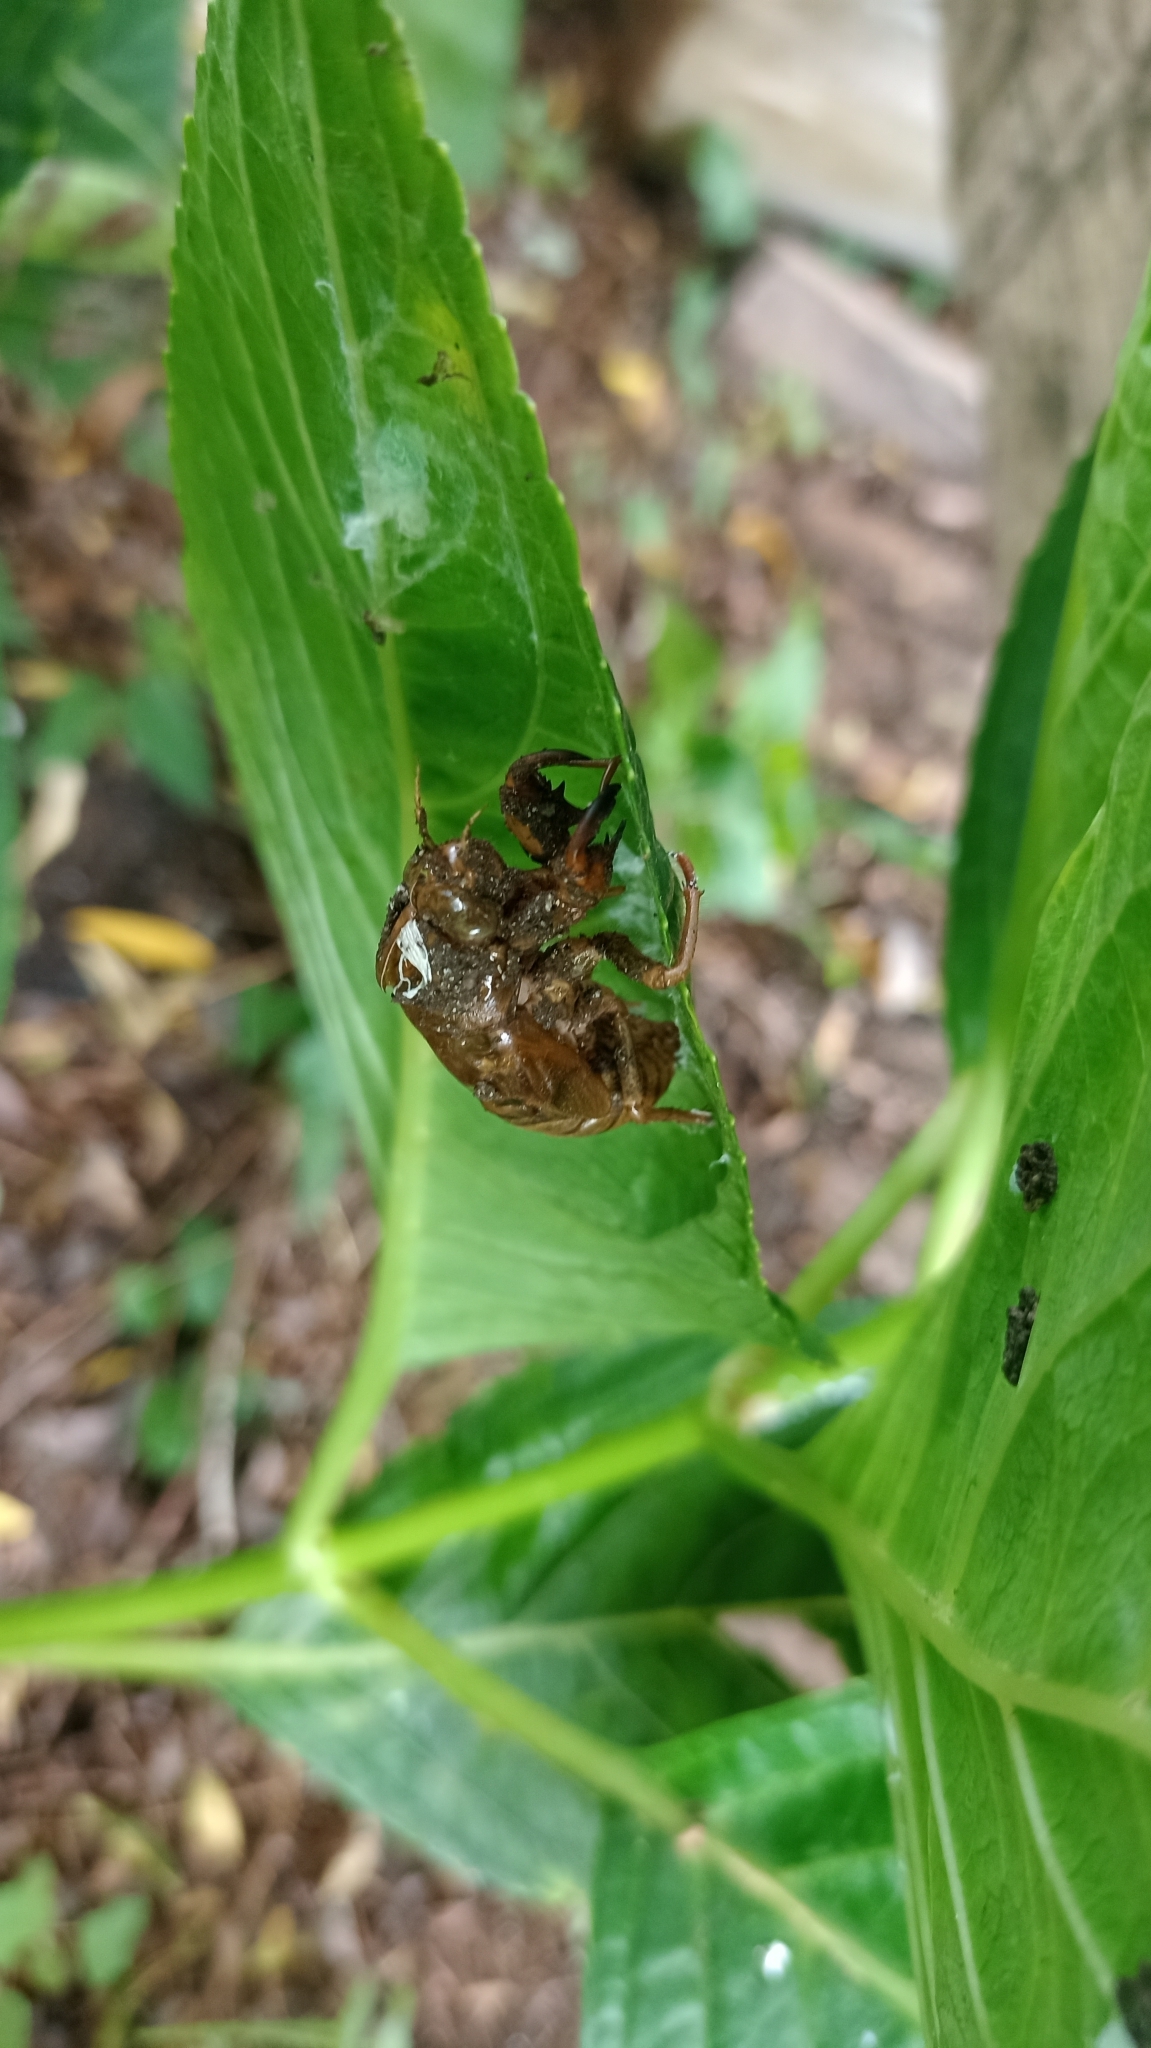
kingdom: Animalia
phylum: Arthropoda
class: Insecta
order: Hemiptera
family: Cicadidae
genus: Platypleura
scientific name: Platypleura kaempferi
